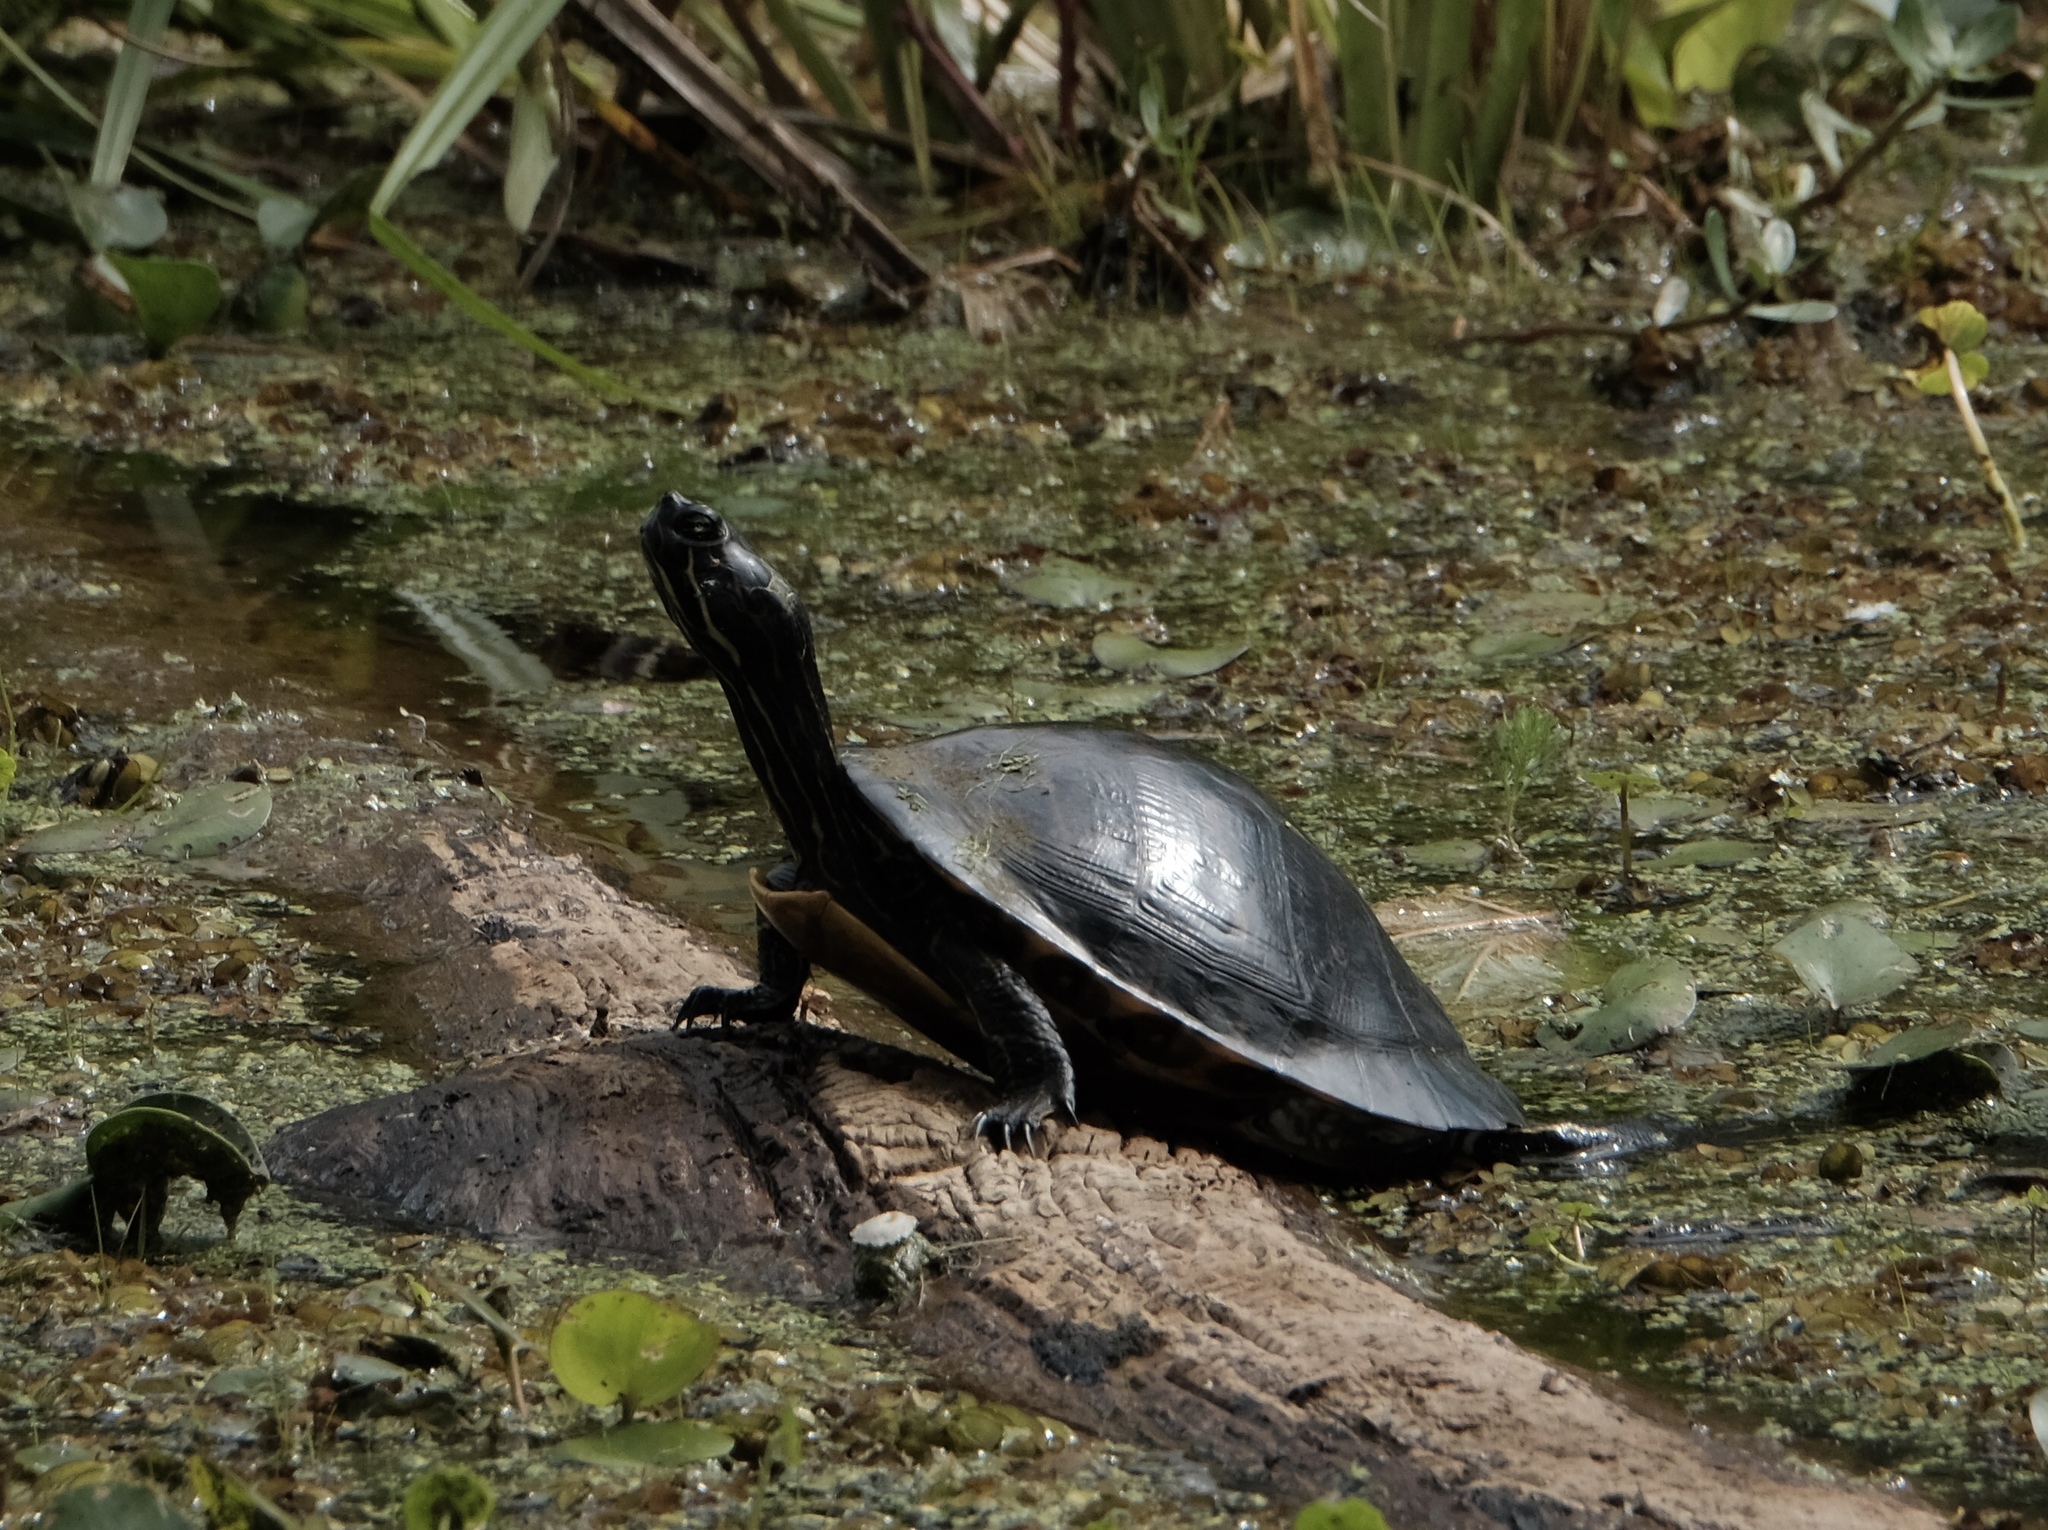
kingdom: Animalia
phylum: Chordata
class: Testudines
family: Emydidae
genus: Pseudemys
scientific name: Pseudemys concinna
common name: Eastern river cooter
